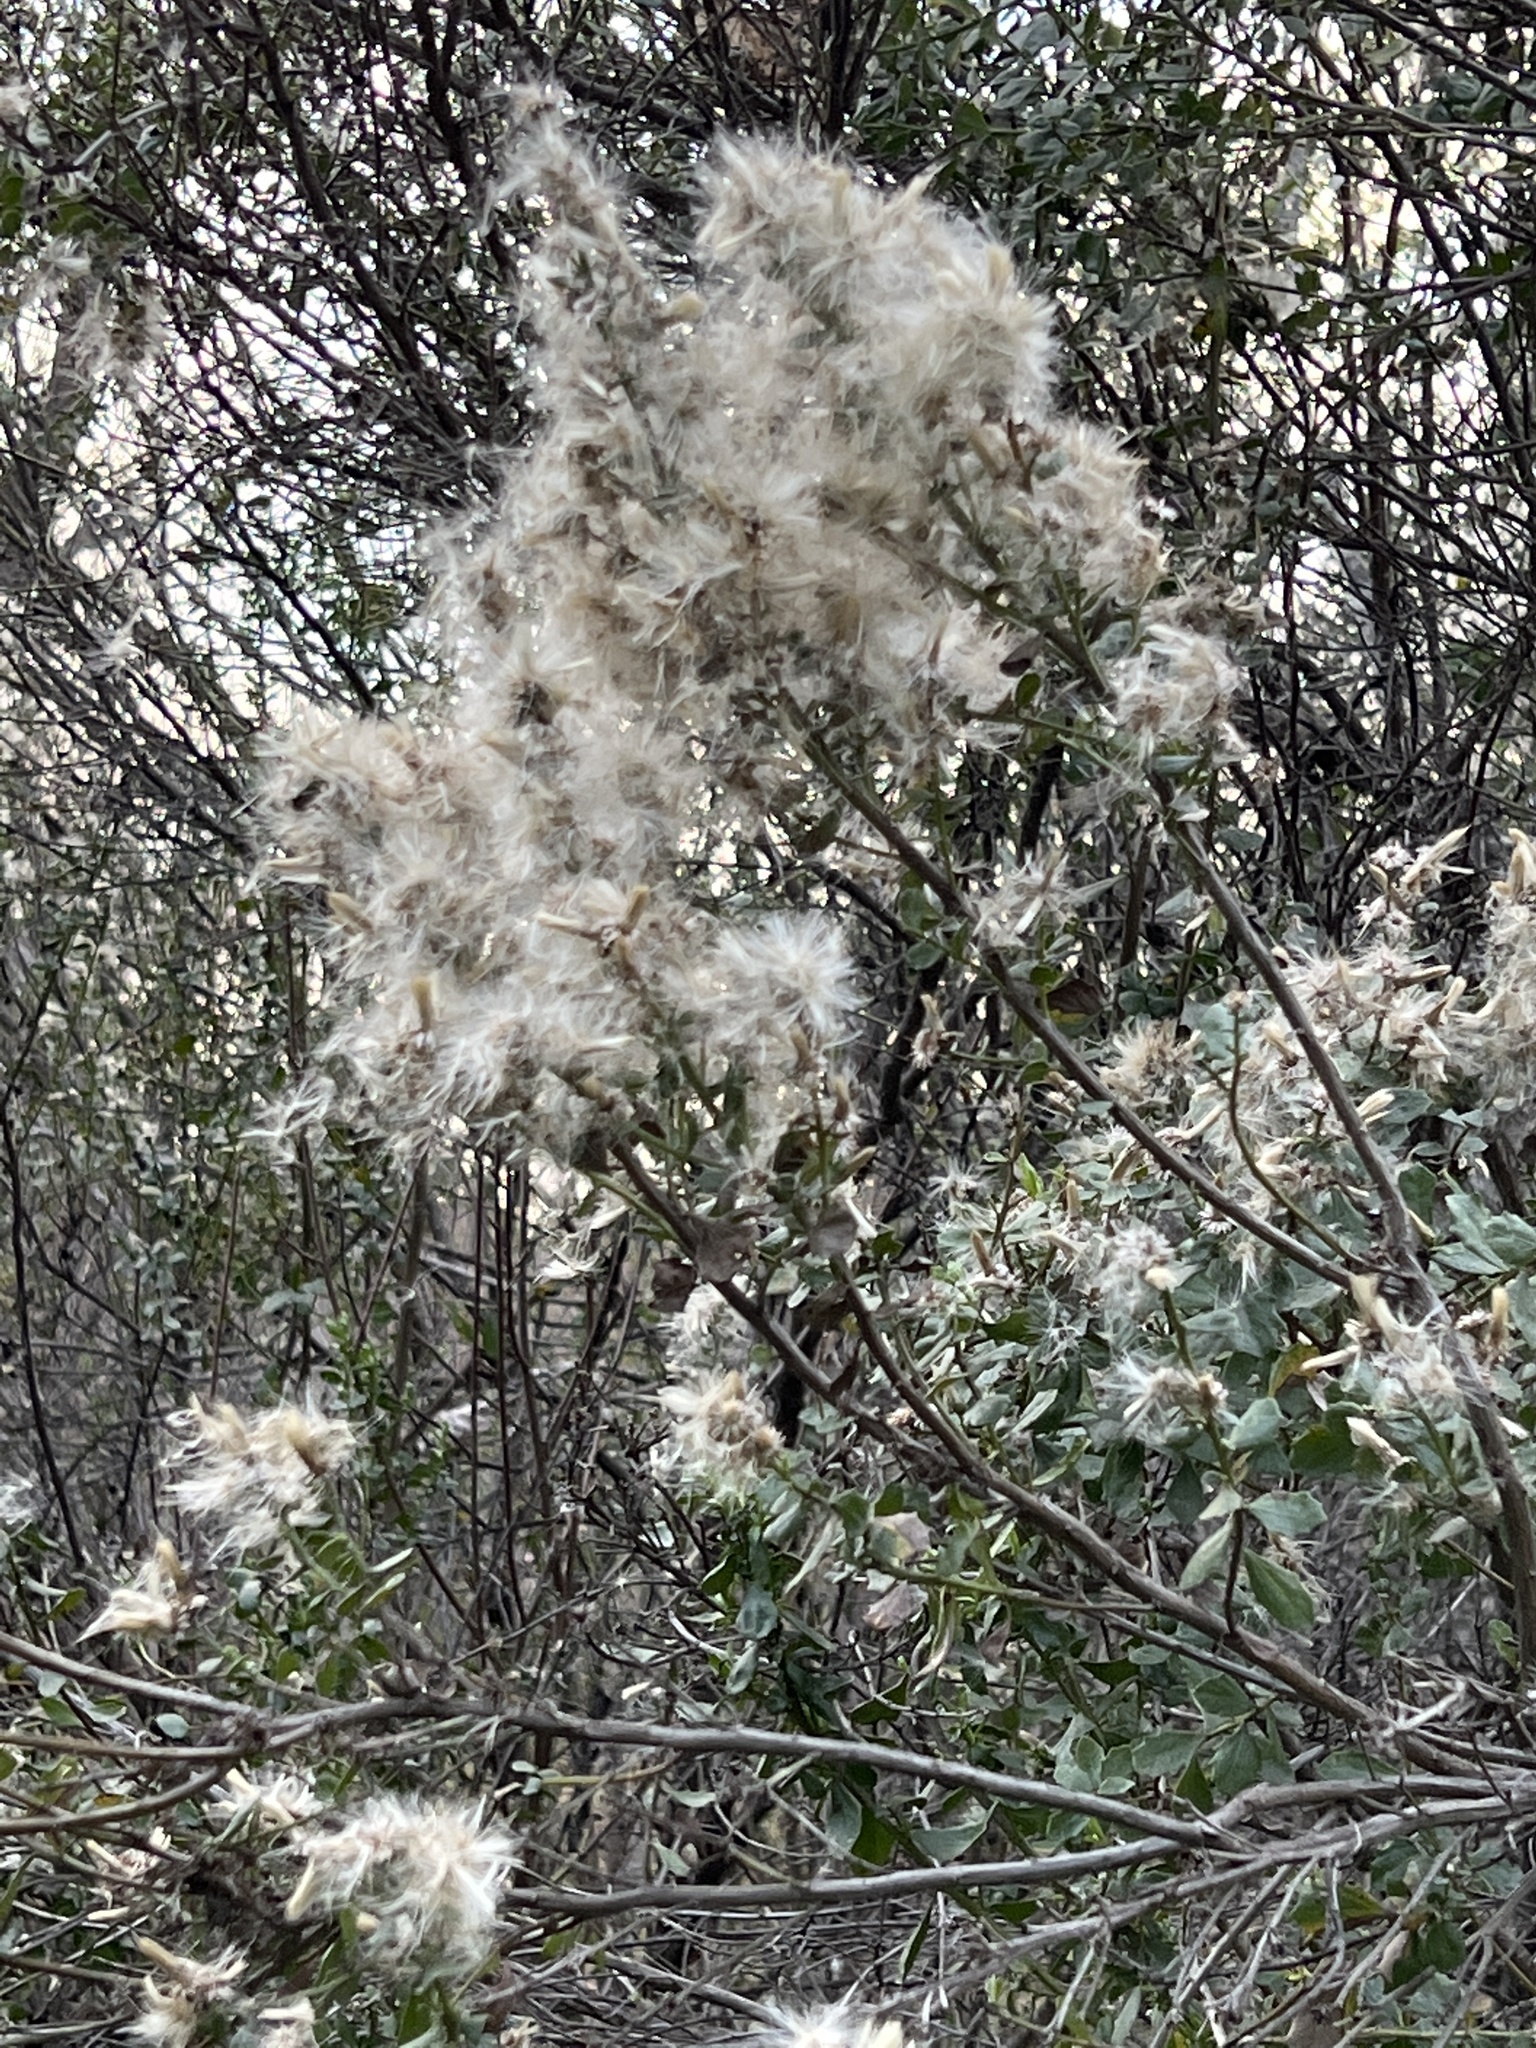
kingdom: Plantae
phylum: Tracheophyta
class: Magnoliopsida
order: Asterales
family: Asteraceae
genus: Baccharis
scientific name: Baccharis pilularis
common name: Coyotebrush
